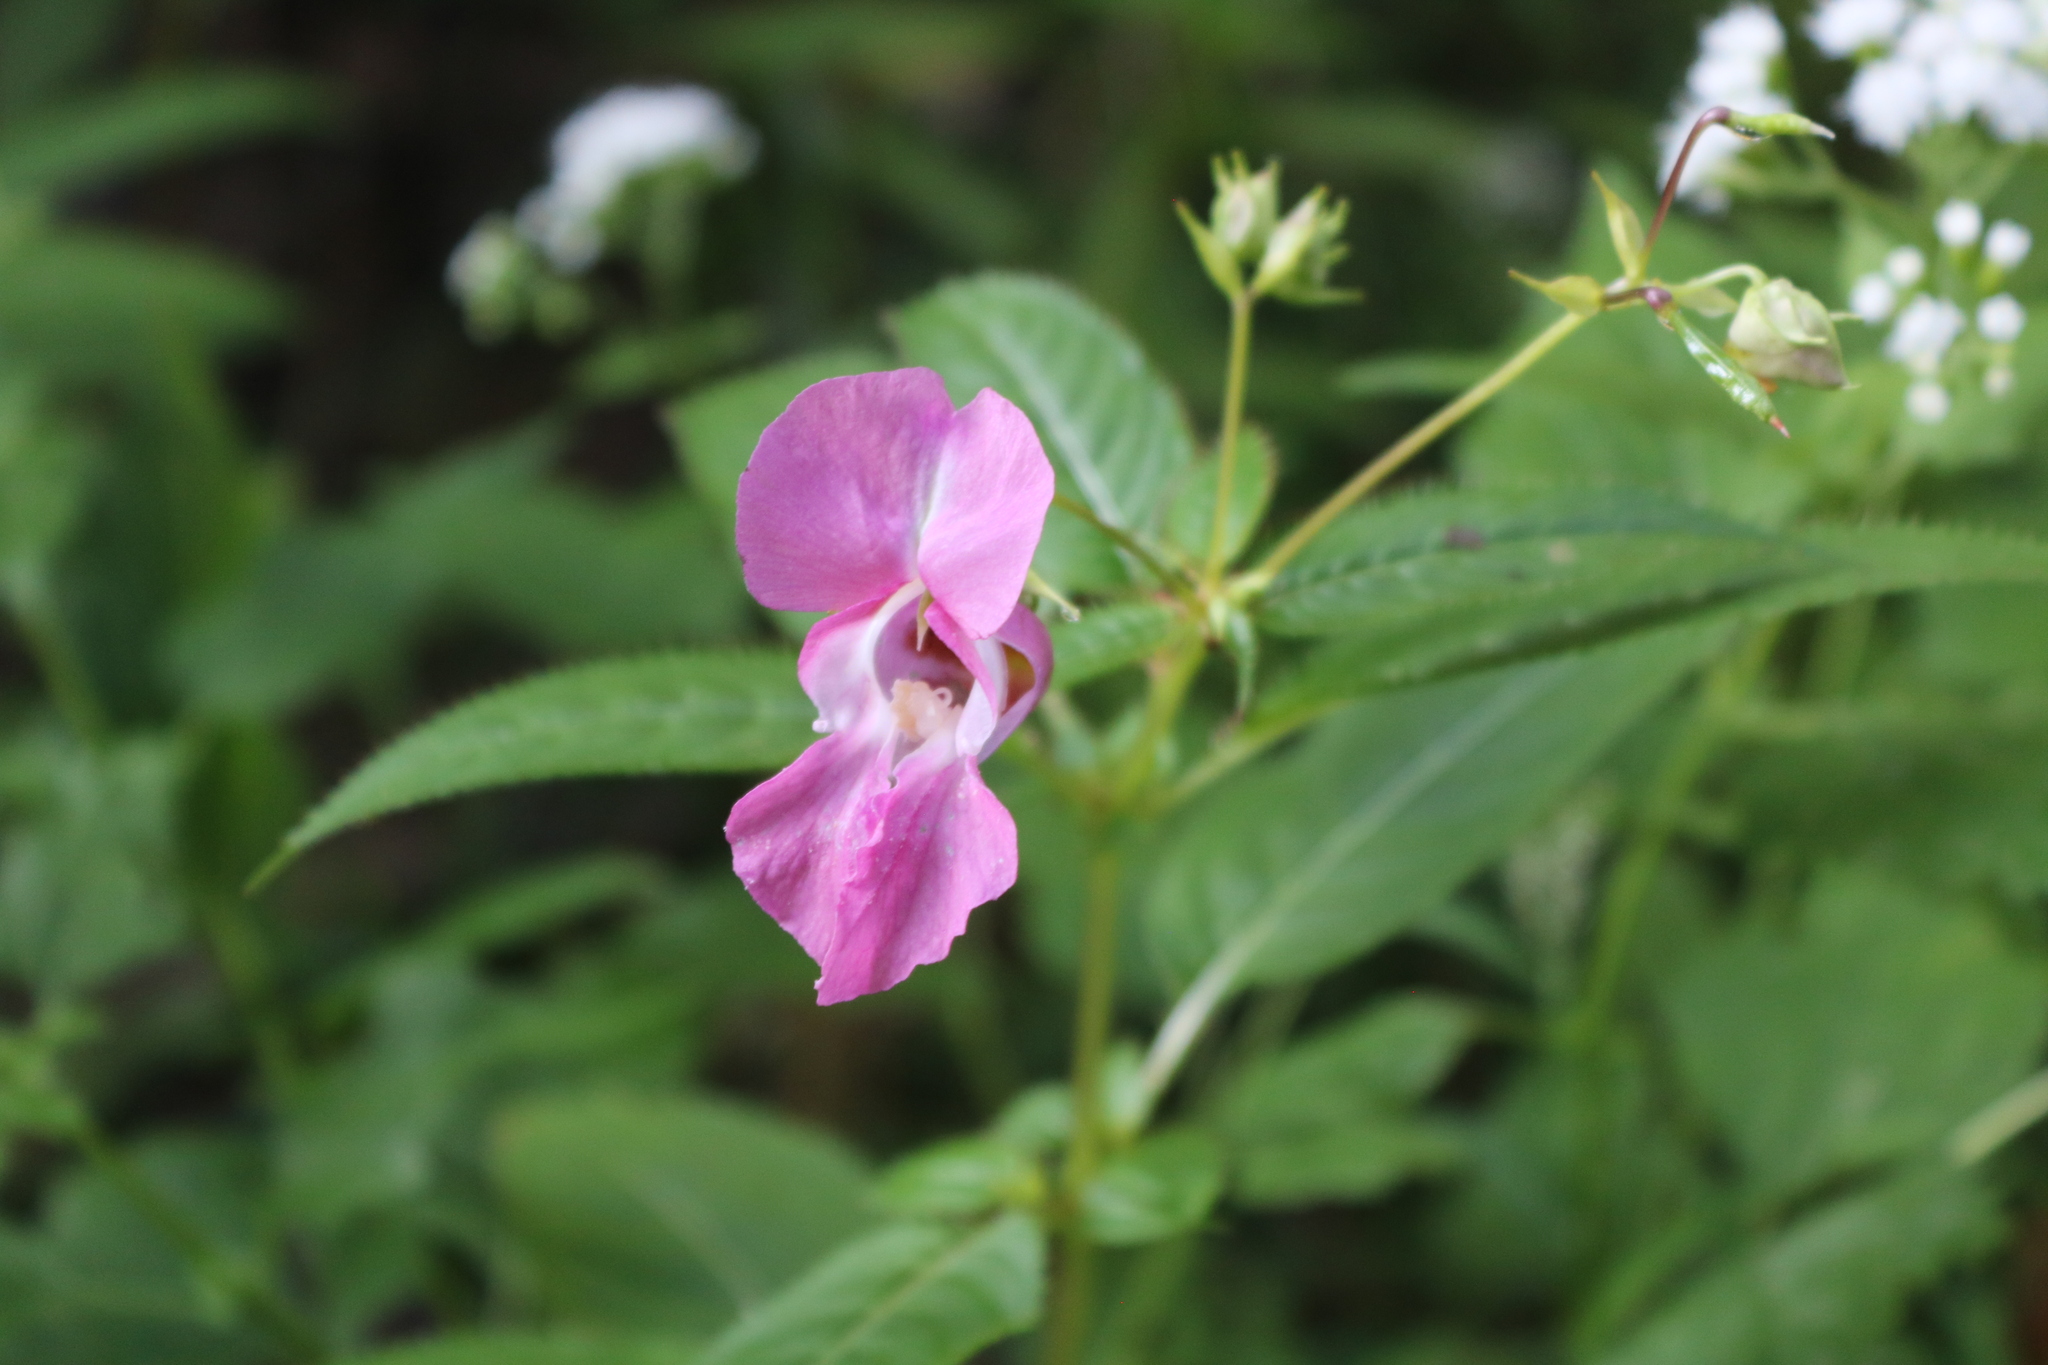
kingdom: Plantae
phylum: Tracheophyta
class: Magnoliopsida
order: Ericales
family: Balsaminaceae
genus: Impatiens
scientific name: Impatiens glandulifera
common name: Himalayan balsam
